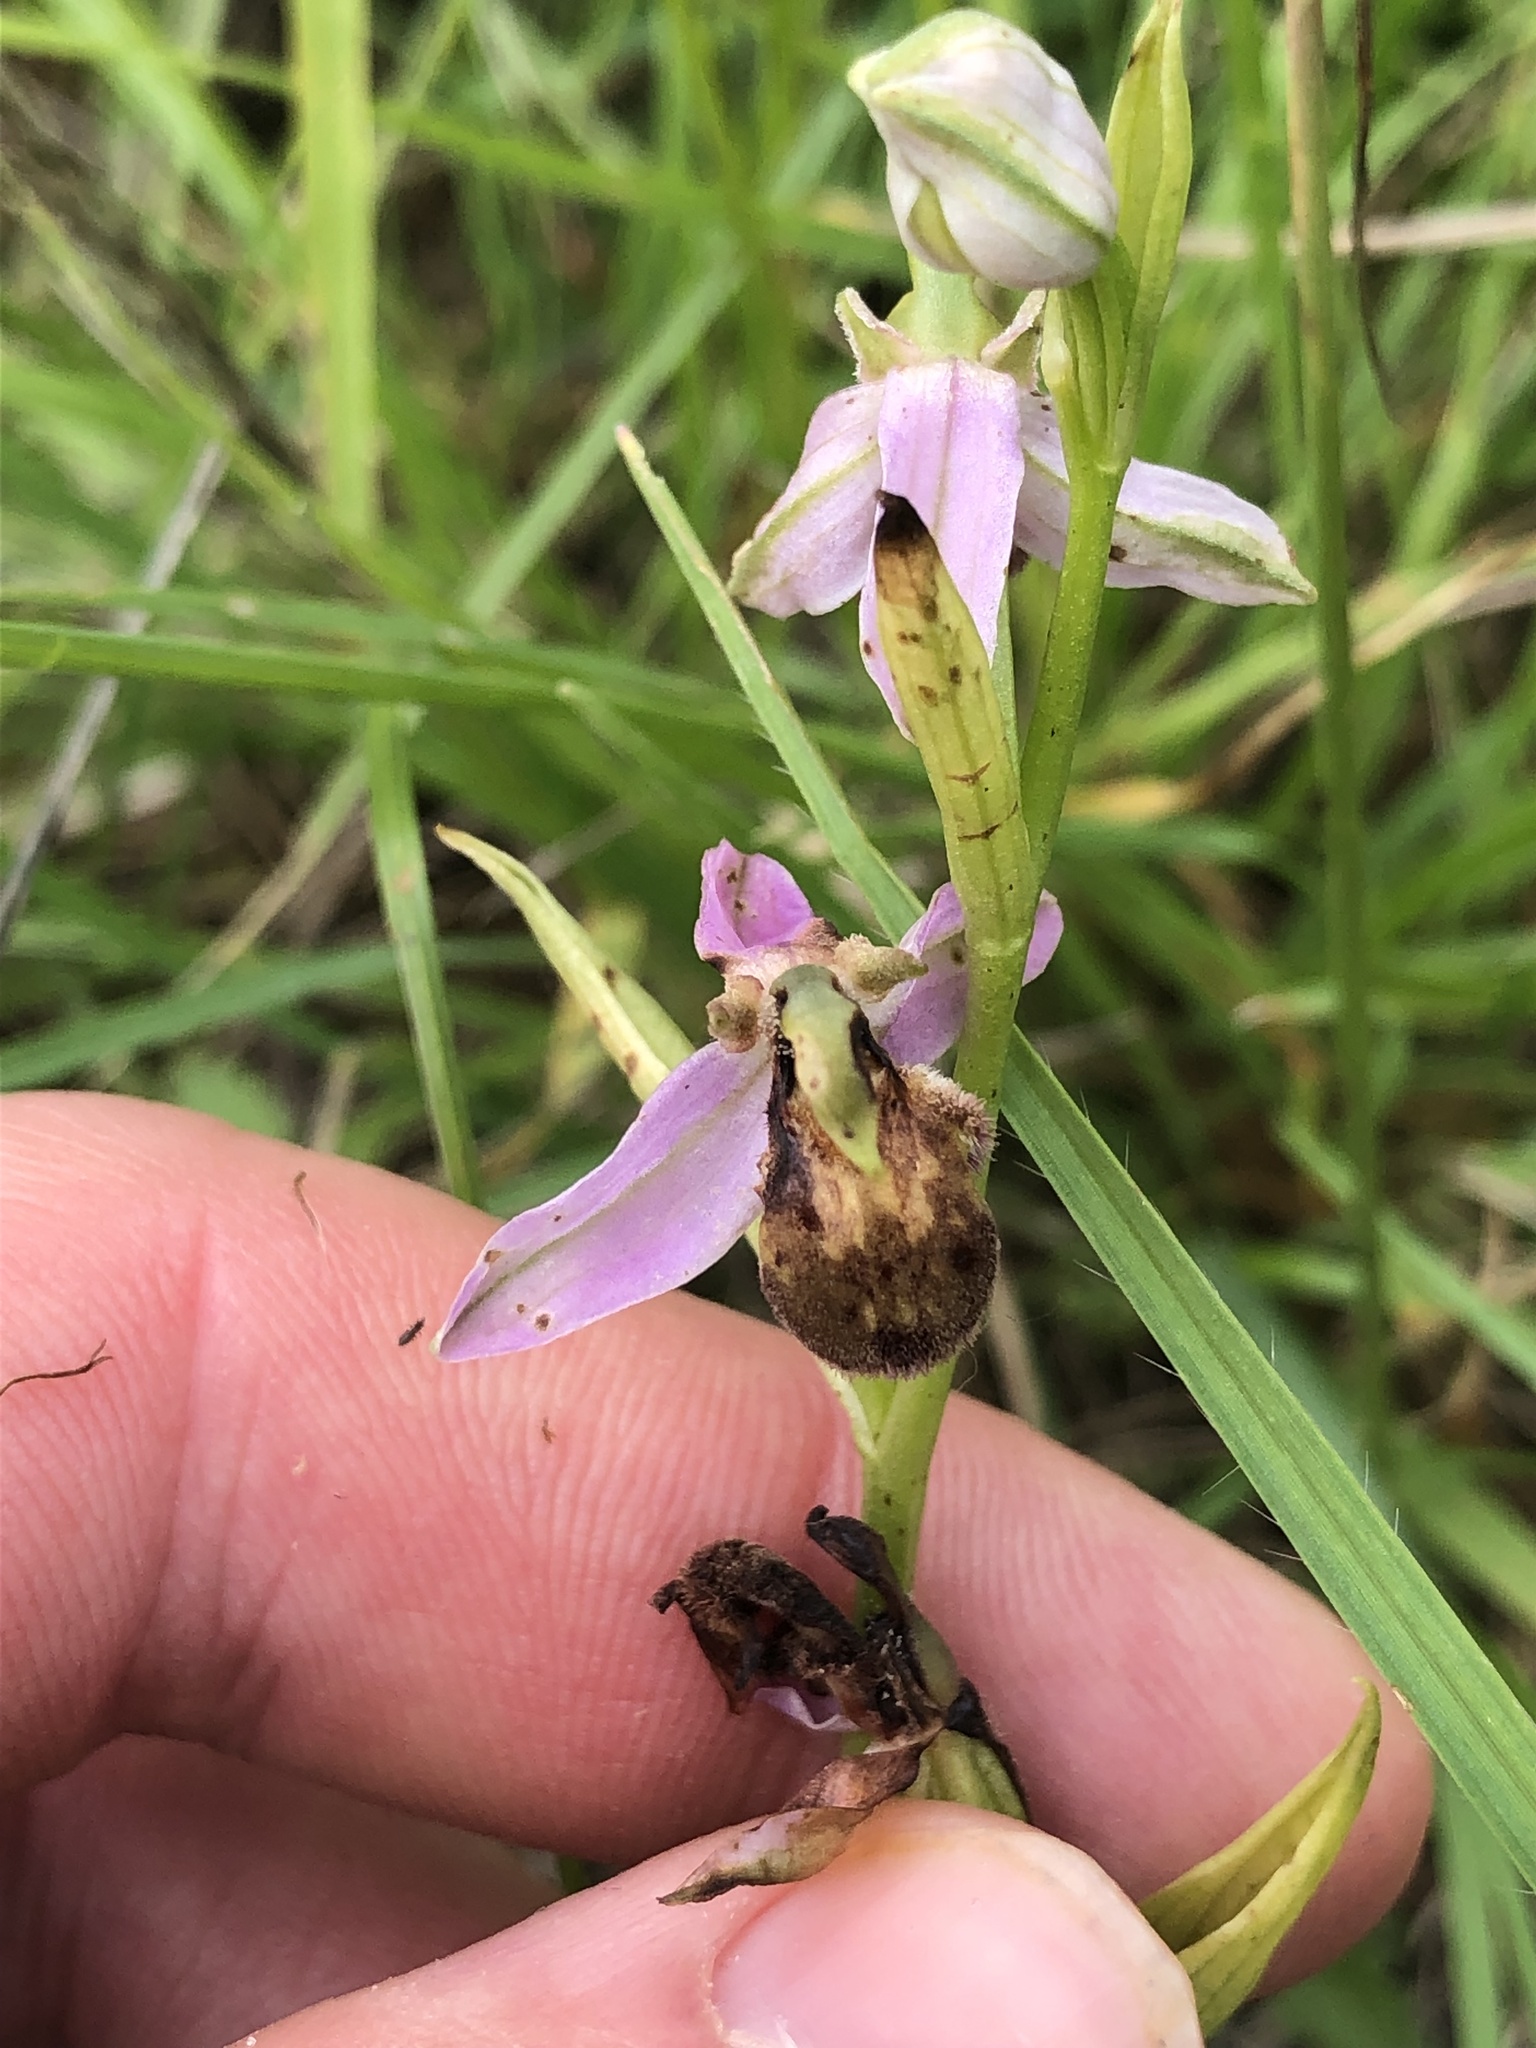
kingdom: Plantae
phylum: Tracheophyta
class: Liliopsida
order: Asparagales
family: Orchidaceae
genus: Ophrys
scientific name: Ophrys apifera
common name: Bee orchid
